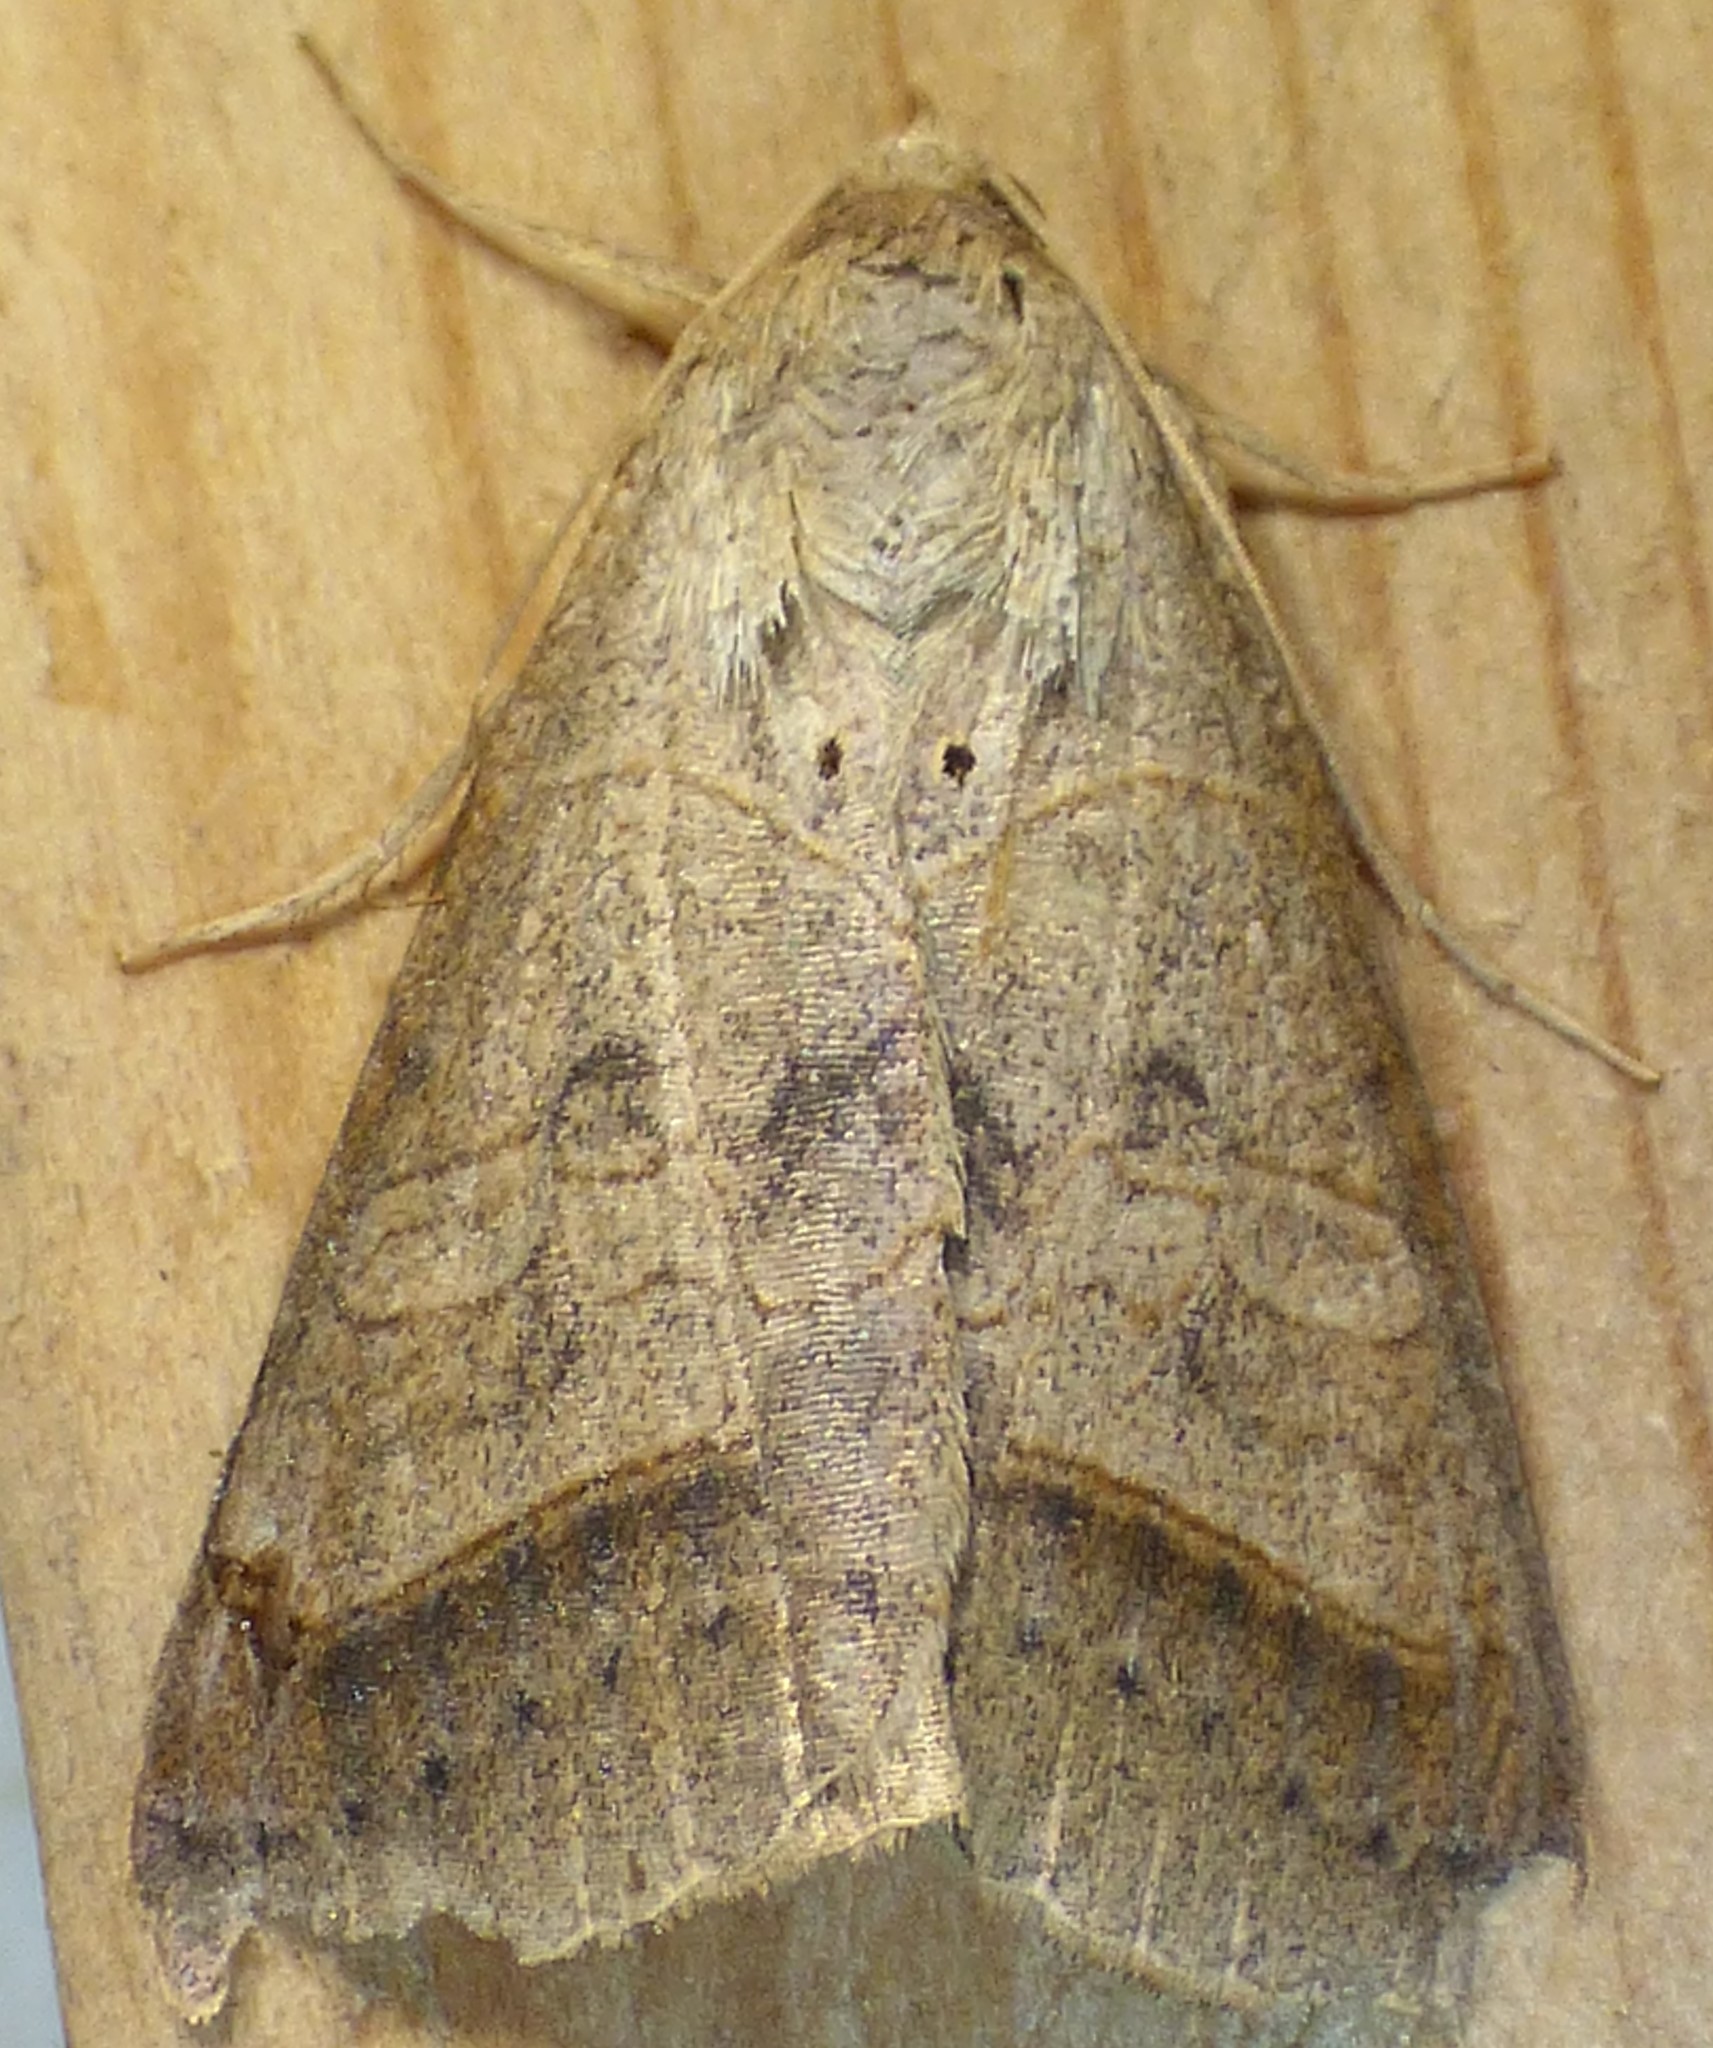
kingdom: Animalia
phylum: Arthropoda
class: Insecta
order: Lepidoptera
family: Erebidae
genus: Mocis
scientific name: Mocis marcida
